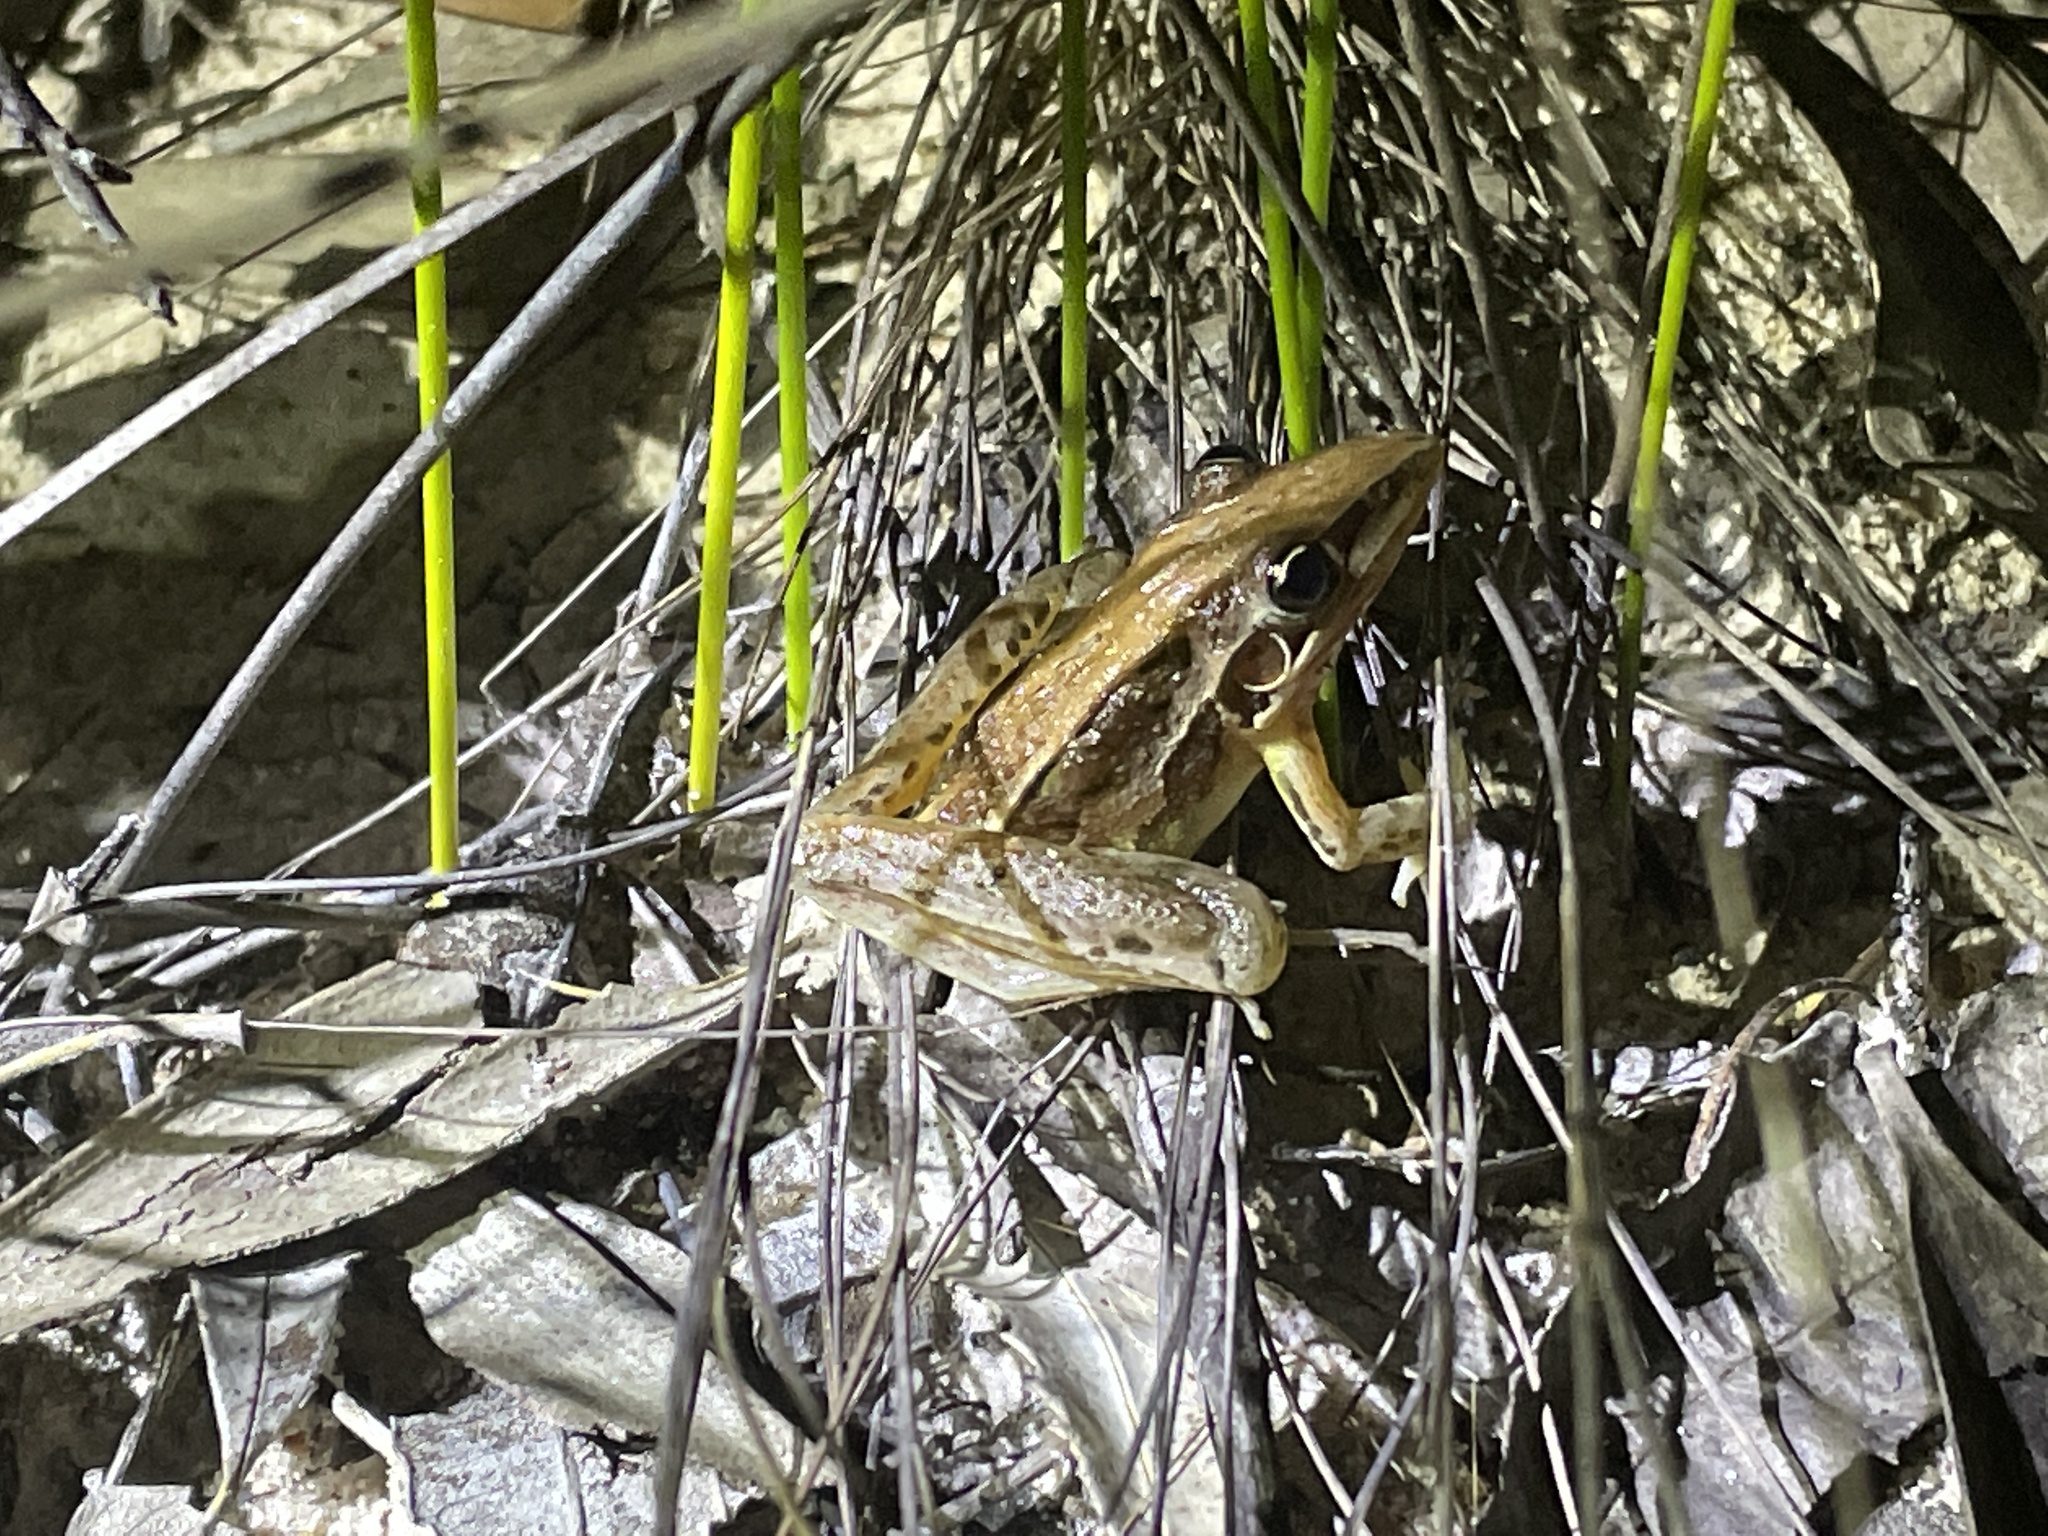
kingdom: Animalia
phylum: Chordata
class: Amphibia
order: Anura
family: Pelodryadidae
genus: Litoria
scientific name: Litoria nasuta
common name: Rocket frog
